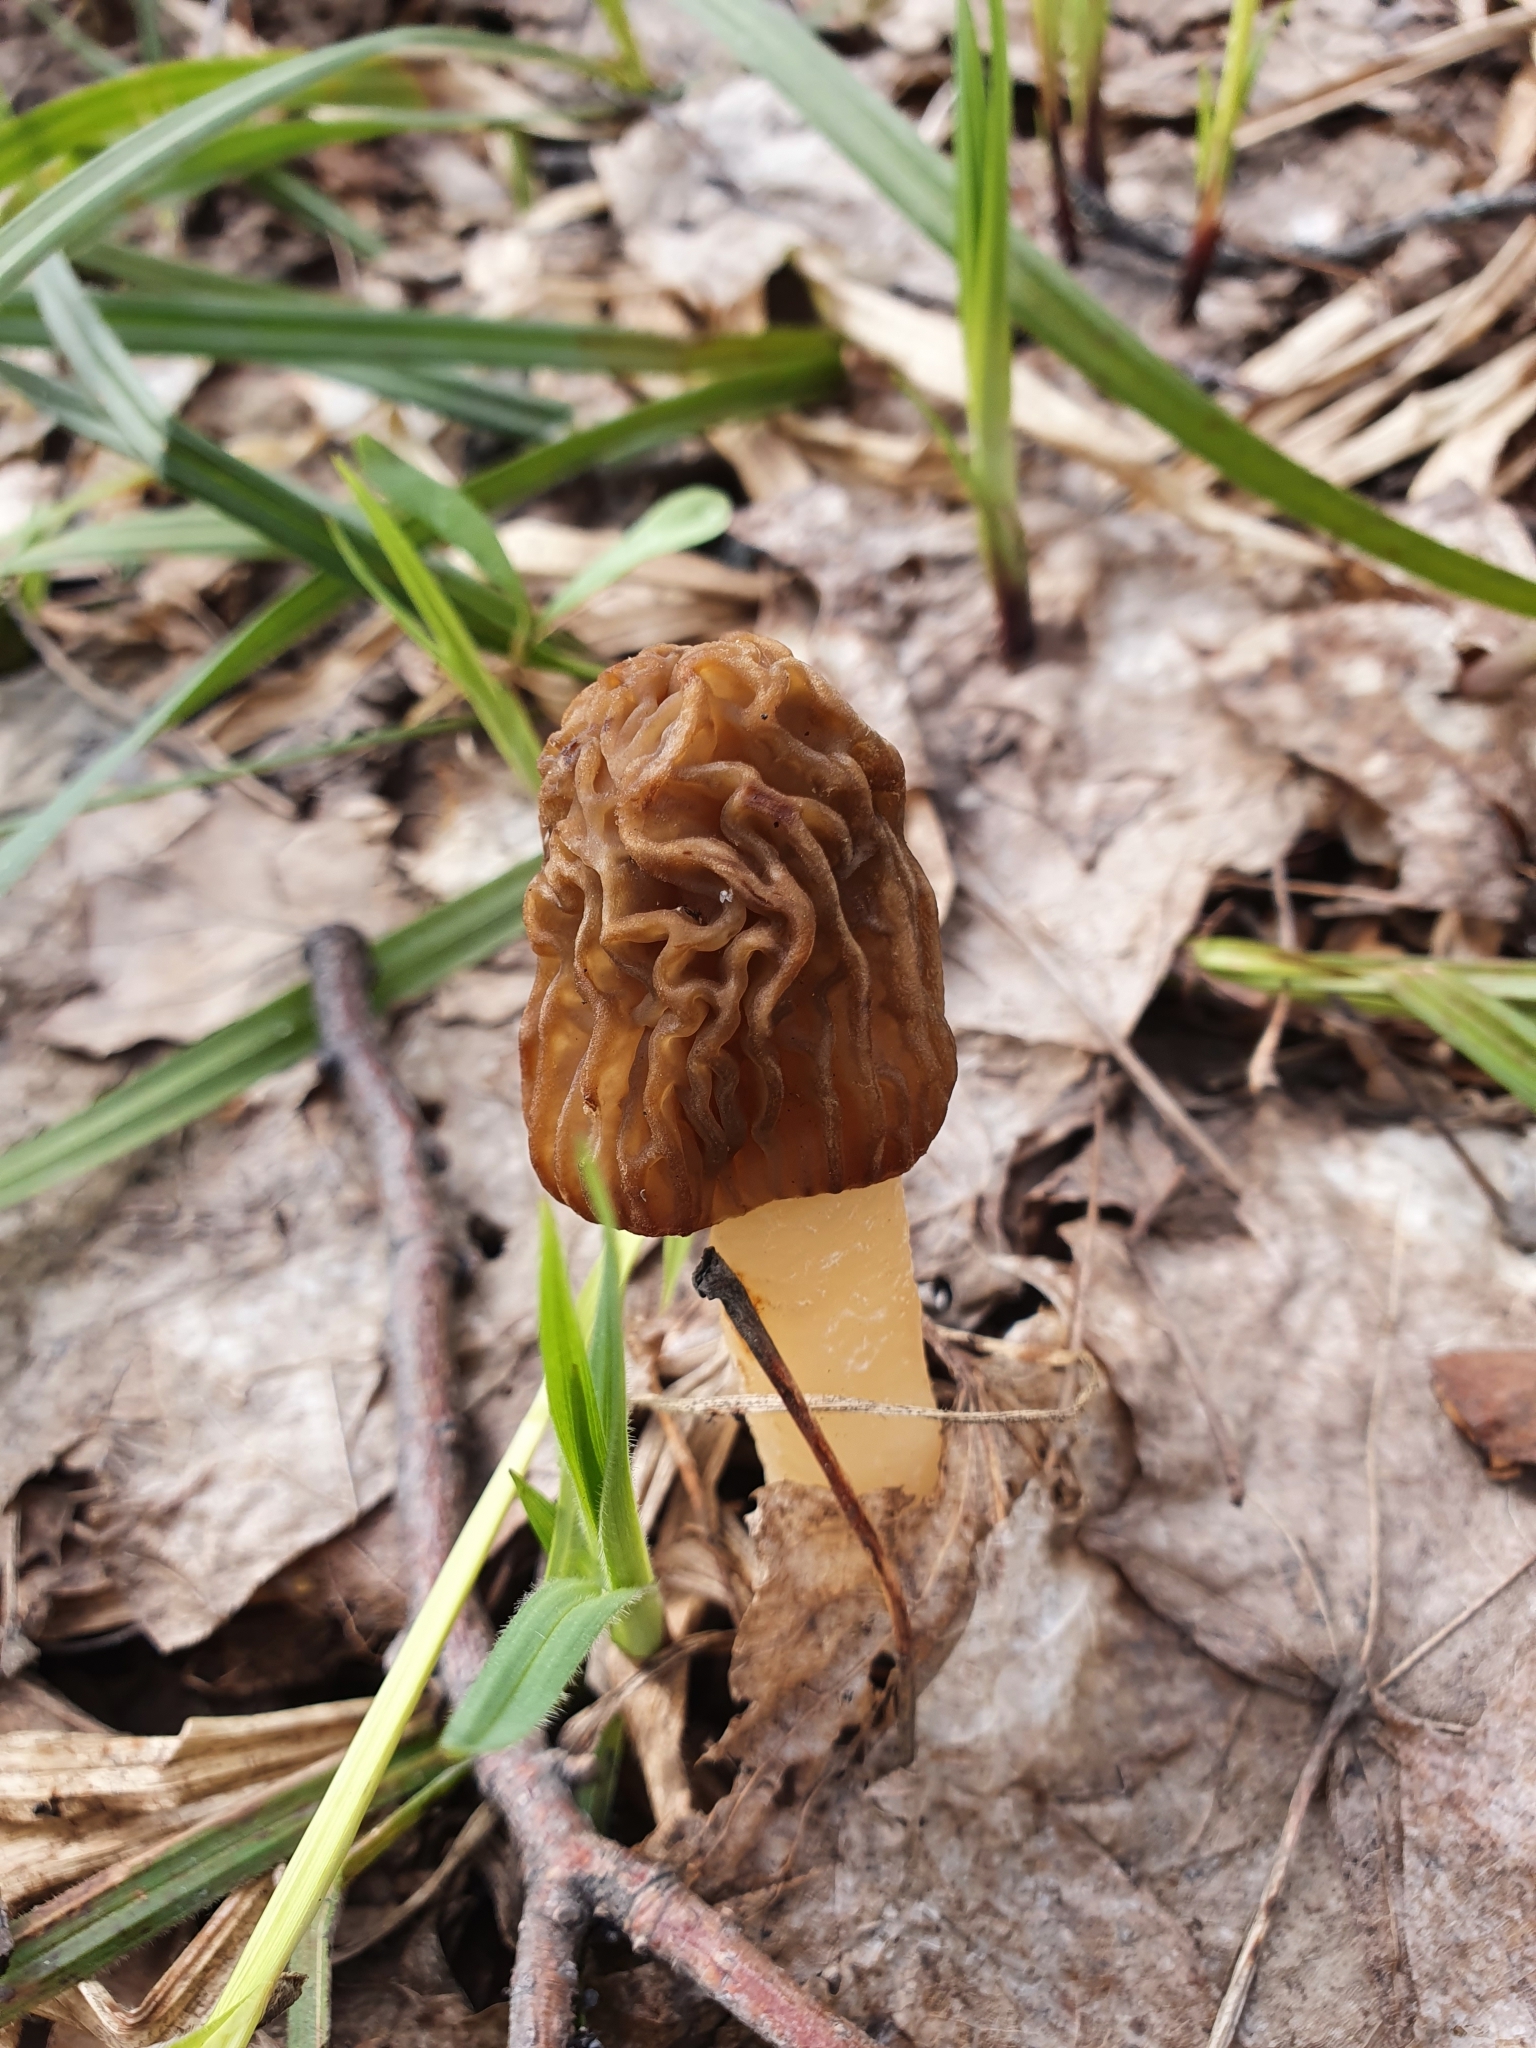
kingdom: Fungi
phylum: Ascomycota
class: Pezizomycetes
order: Pezizales
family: Morchellaceae
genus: Verpa
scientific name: Verpa bohemica
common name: Wrinkled thimble morel
